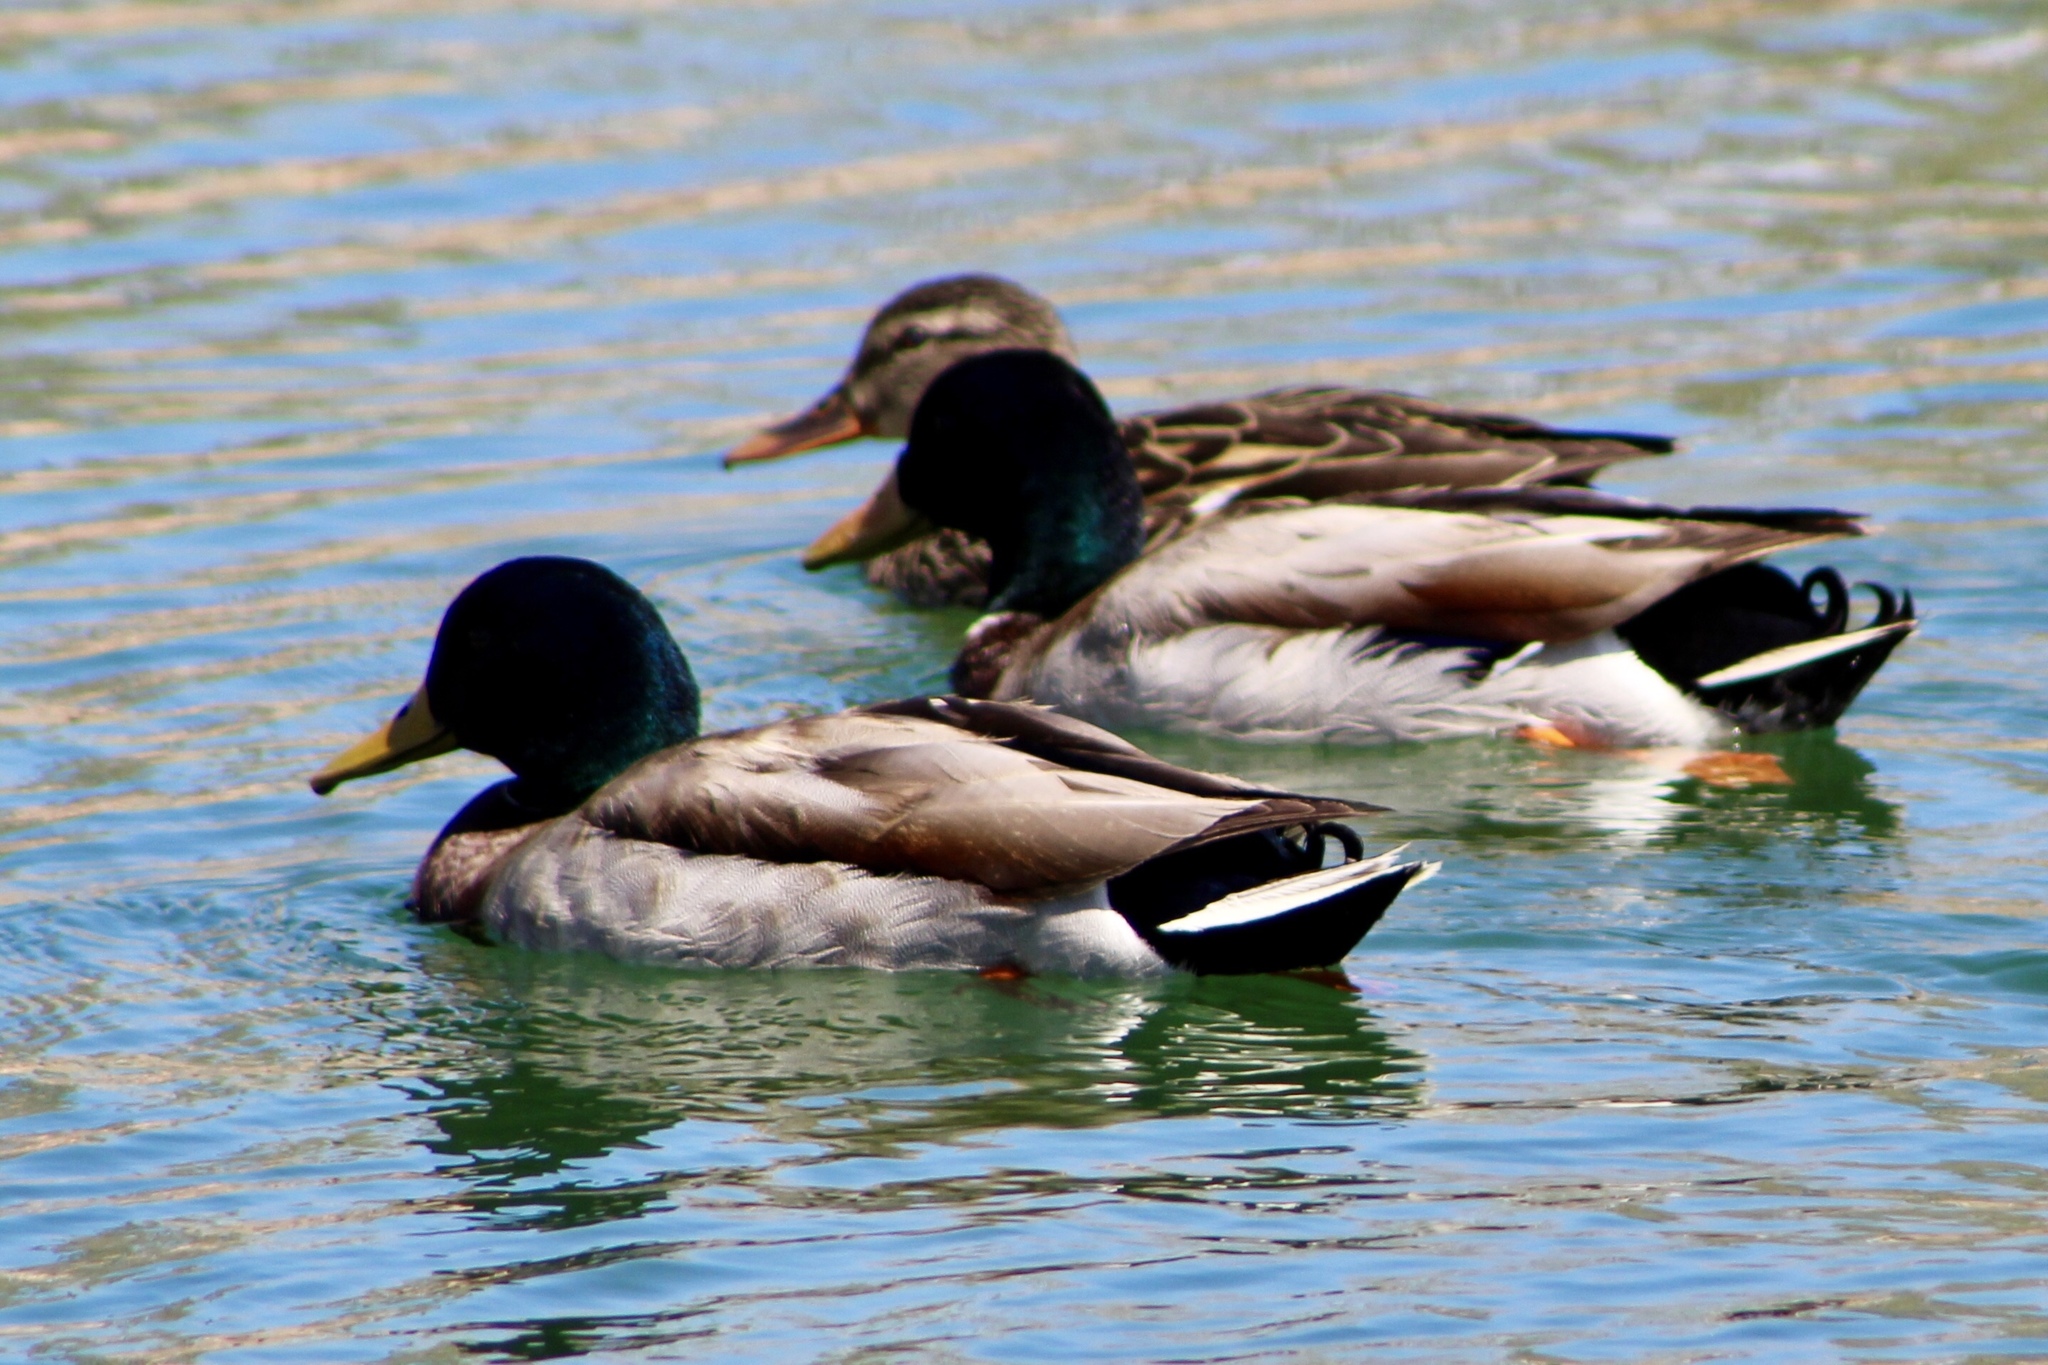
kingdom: Animalia
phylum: Chordata
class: Aves
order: Anseriformes
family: Anatidae
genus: Anas
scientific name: Anas platyrhynchos
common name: Mallard
